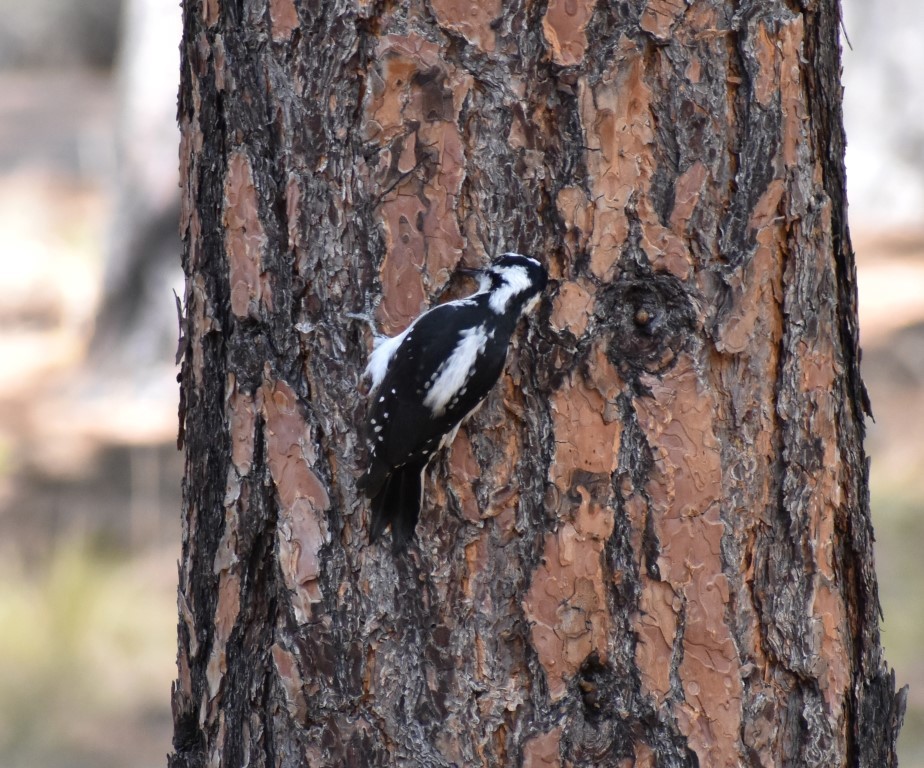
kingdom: Animalia
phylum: Chordata
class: Aves
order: Piciformes
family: Picidae
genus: Leuconotopicus
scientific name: Leuconotopicus villosus
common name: Hairy woodpecker
